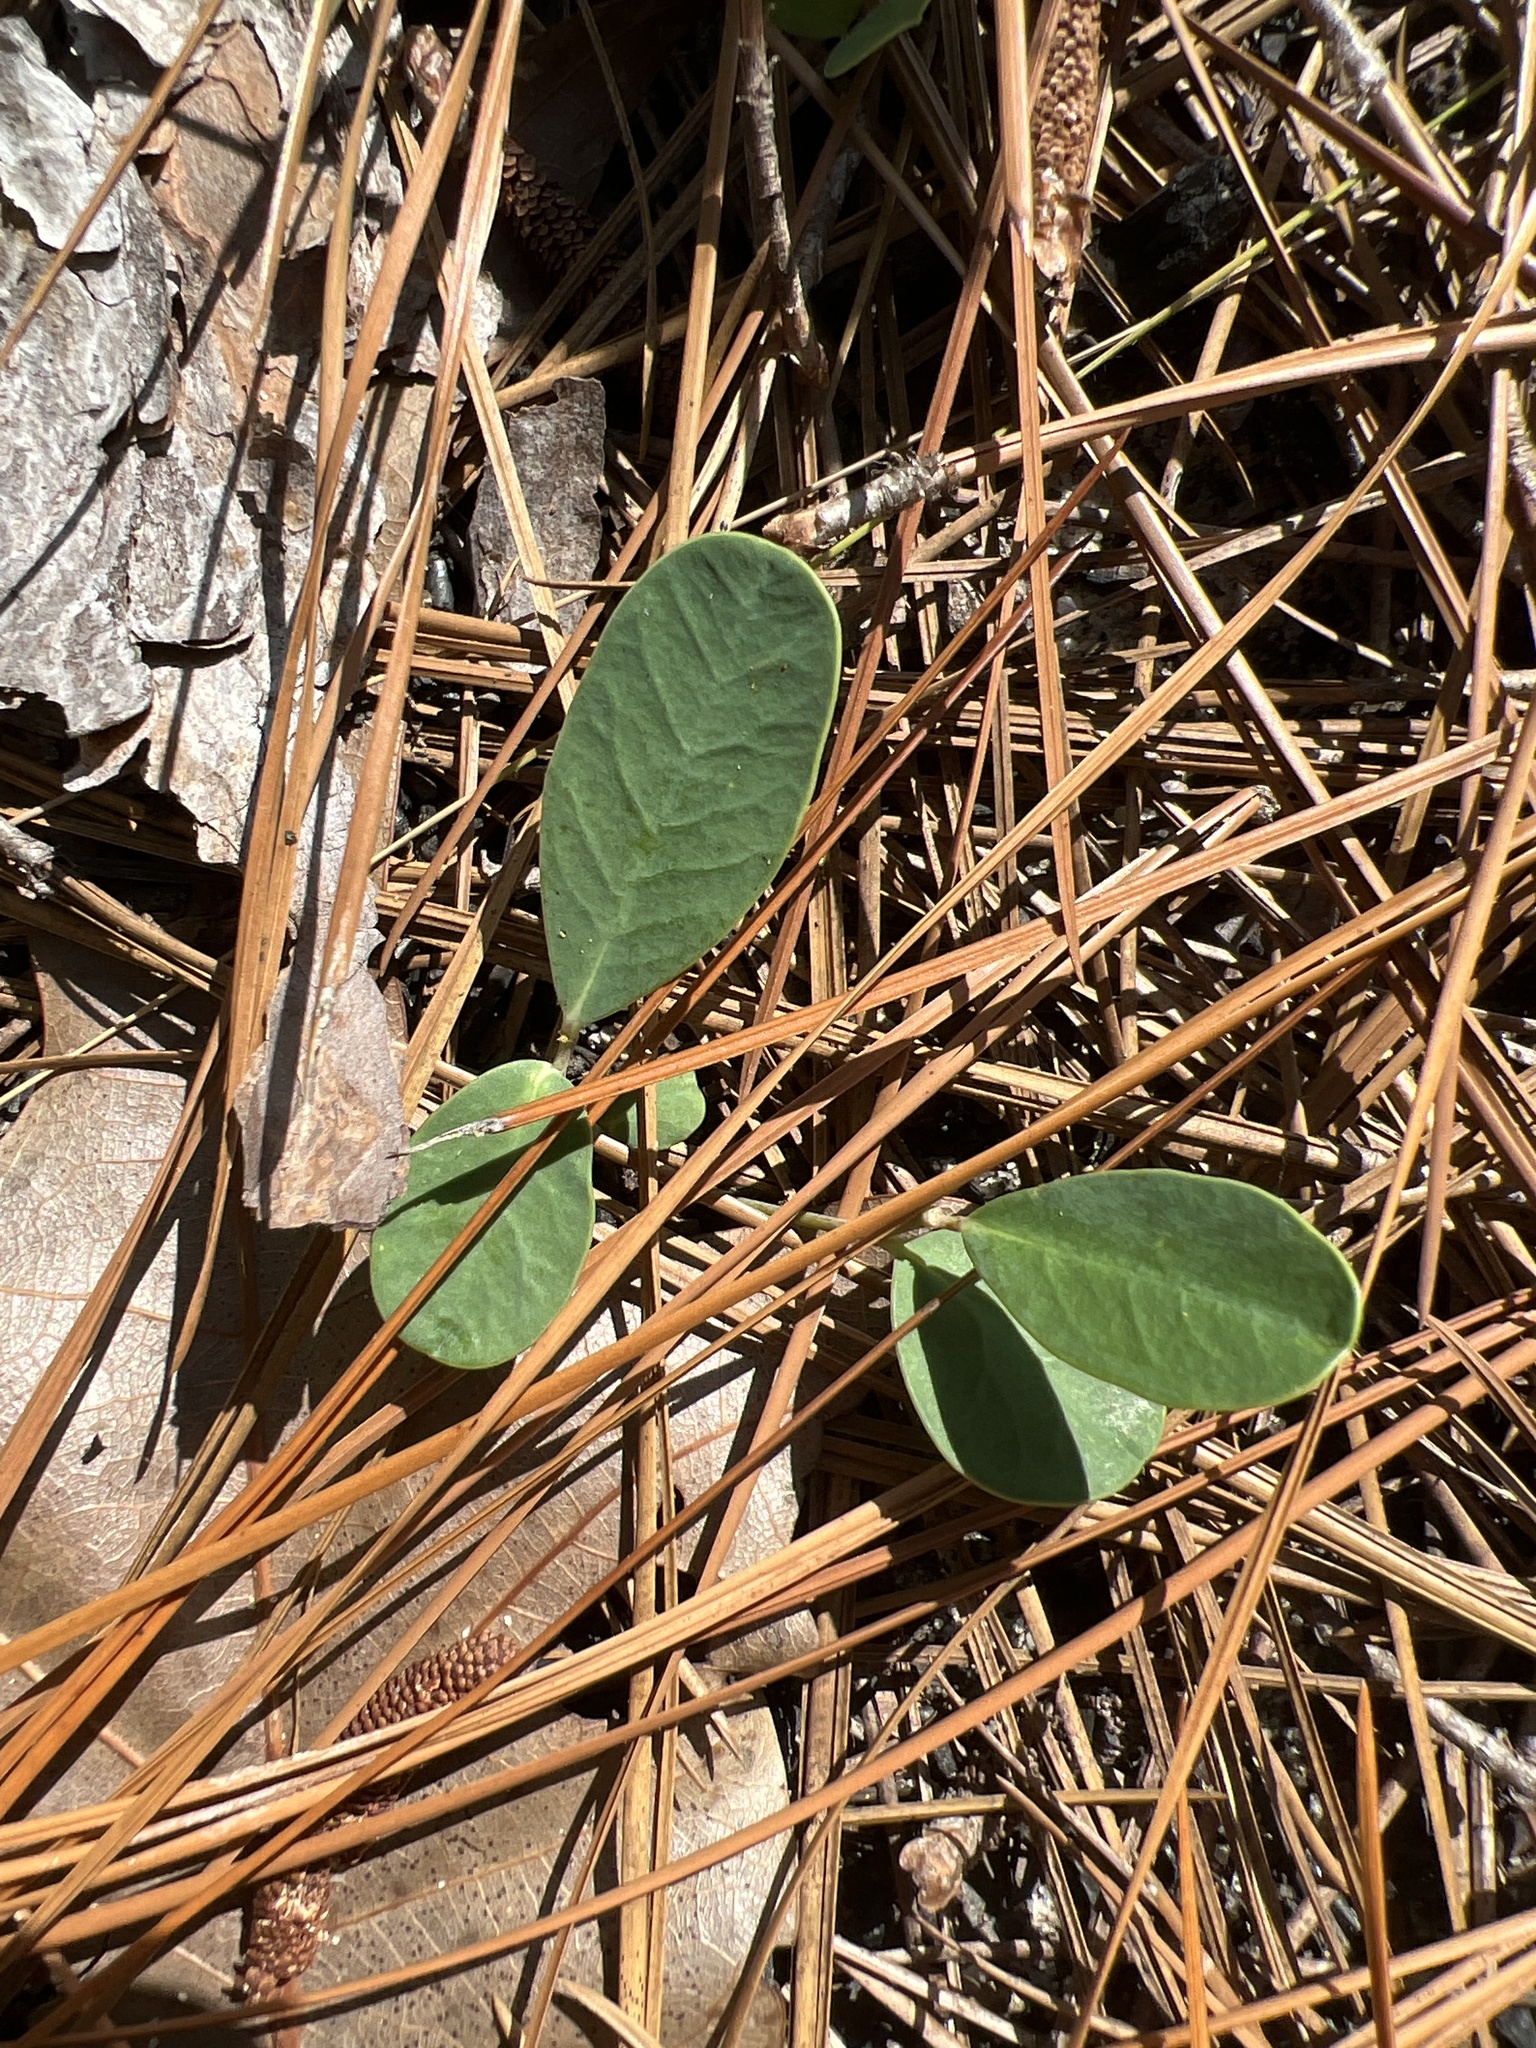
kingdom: Plantae
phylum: Tracheophyta
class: Magnoliopsida
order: Malpighiales
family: Euphorbiaceae
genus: Euphorbia
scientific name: Euphorbia ipecacuanhae
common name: Carolina ipecac
